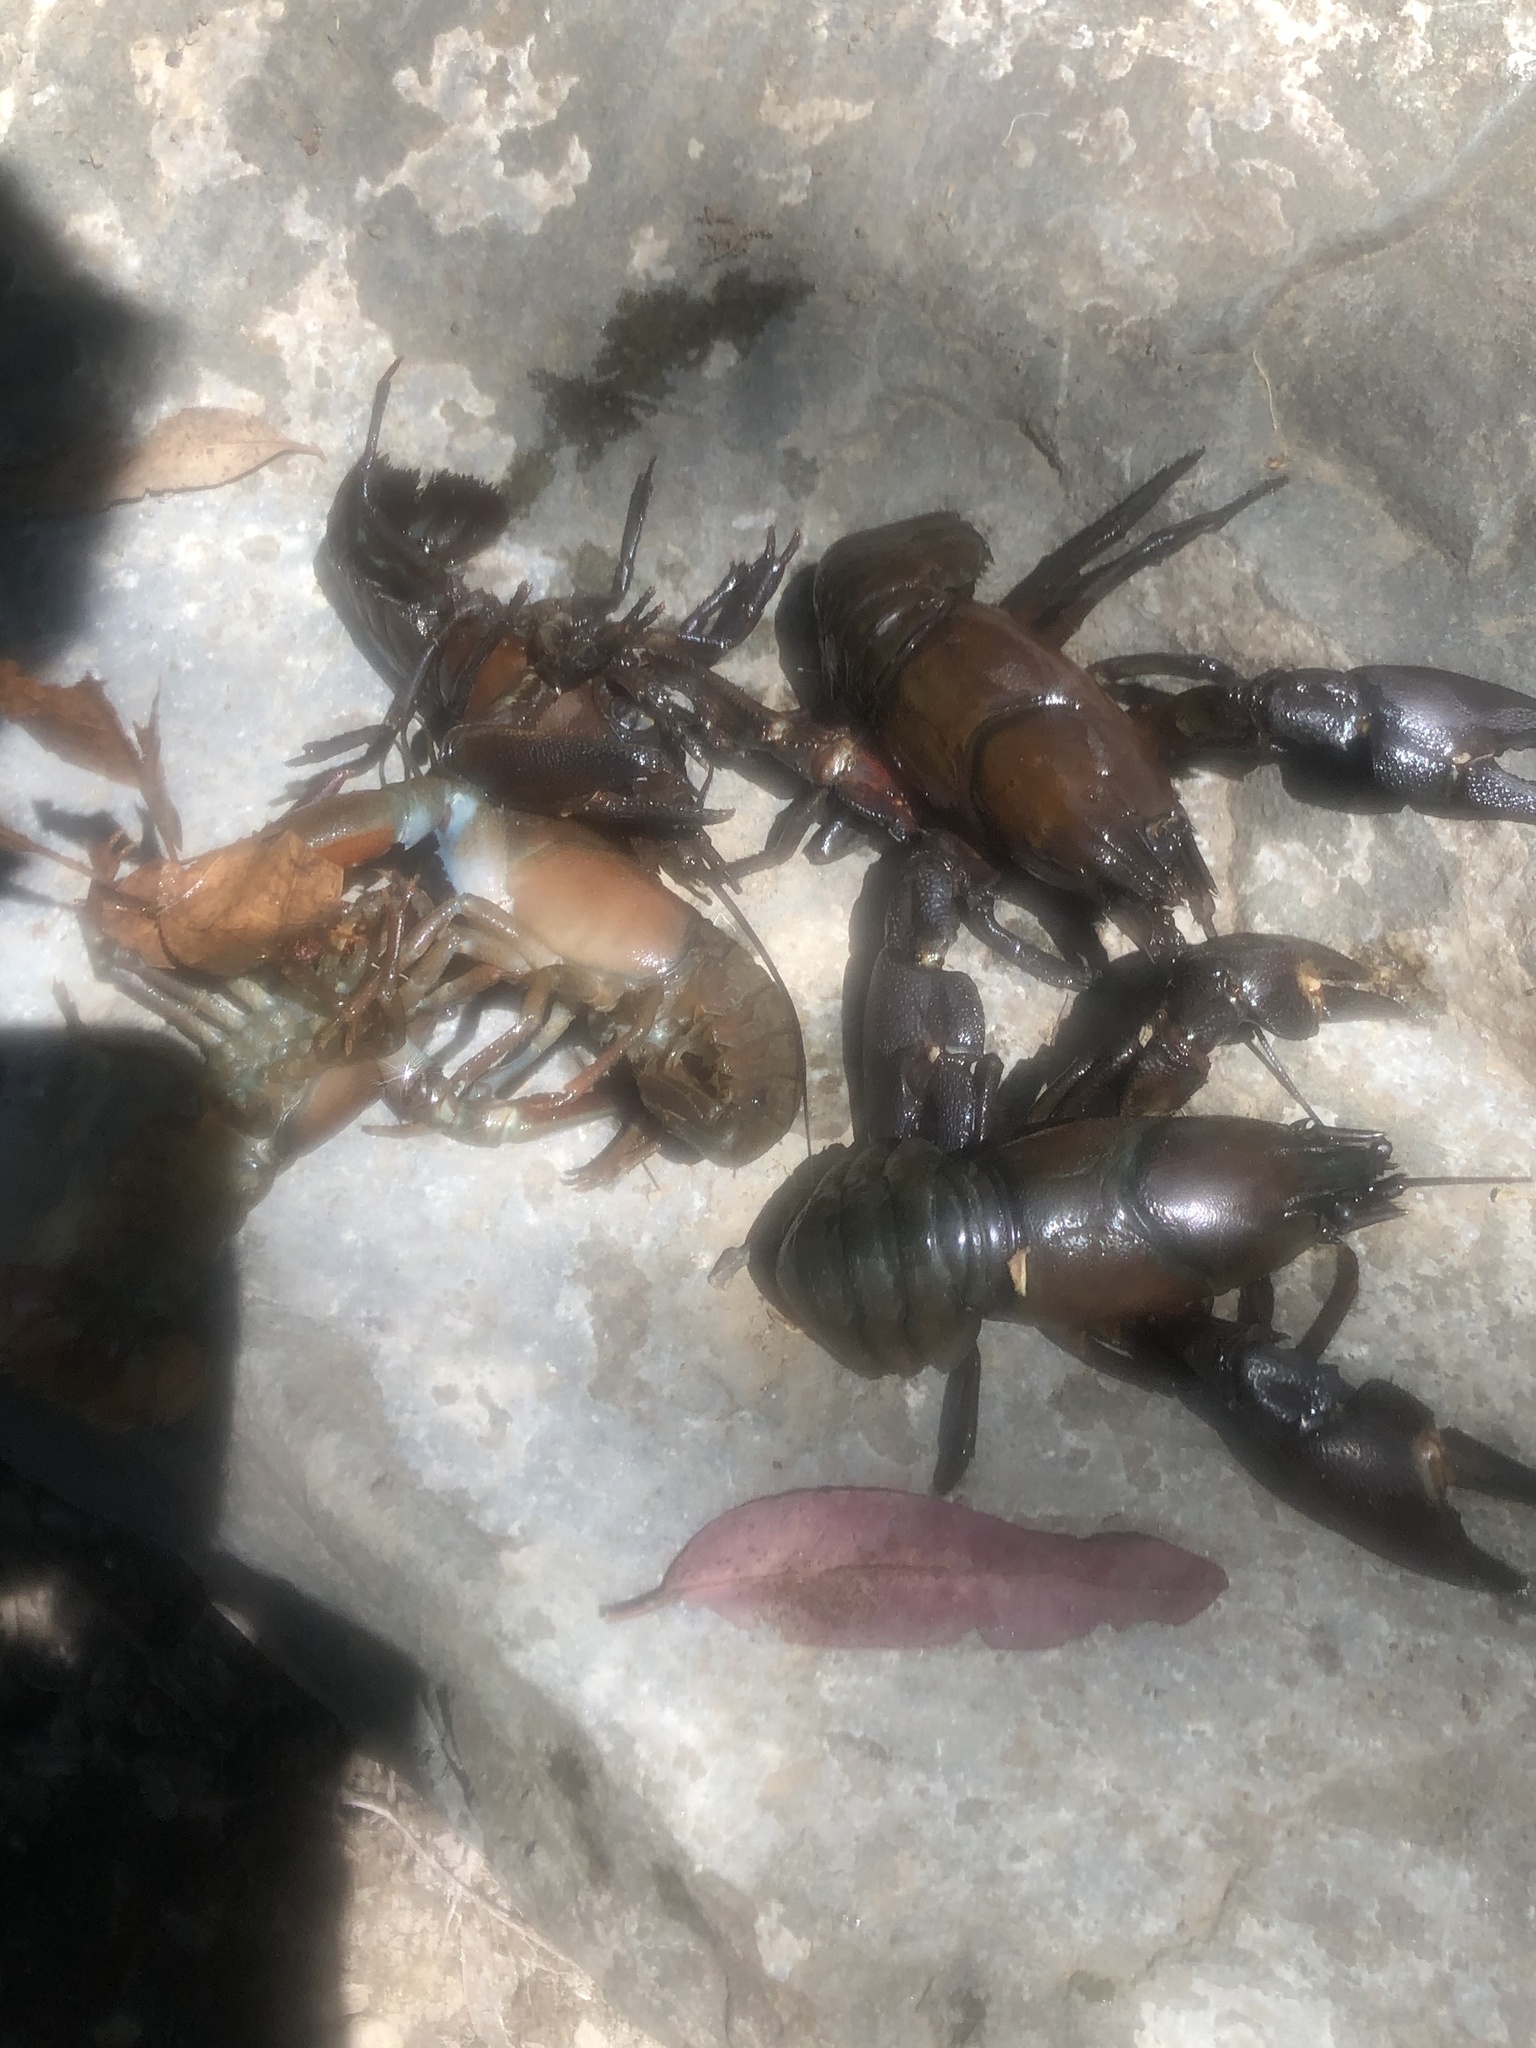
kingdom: Animalia
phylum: Arthropoda
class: Malacostraca
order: Decapoda
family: Astacidae
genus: Pacifastacus
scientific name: Pacifastacus leniusculus
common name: Signal crayfish
